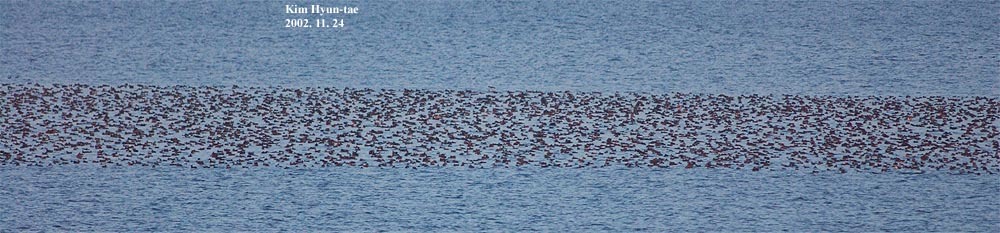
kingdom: Animalia
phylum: Chordata
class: Aves
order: Anseriformes
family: Anatidae
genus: Sibirionetta
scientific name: Sibirionetta formosa
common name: Baikal teal
